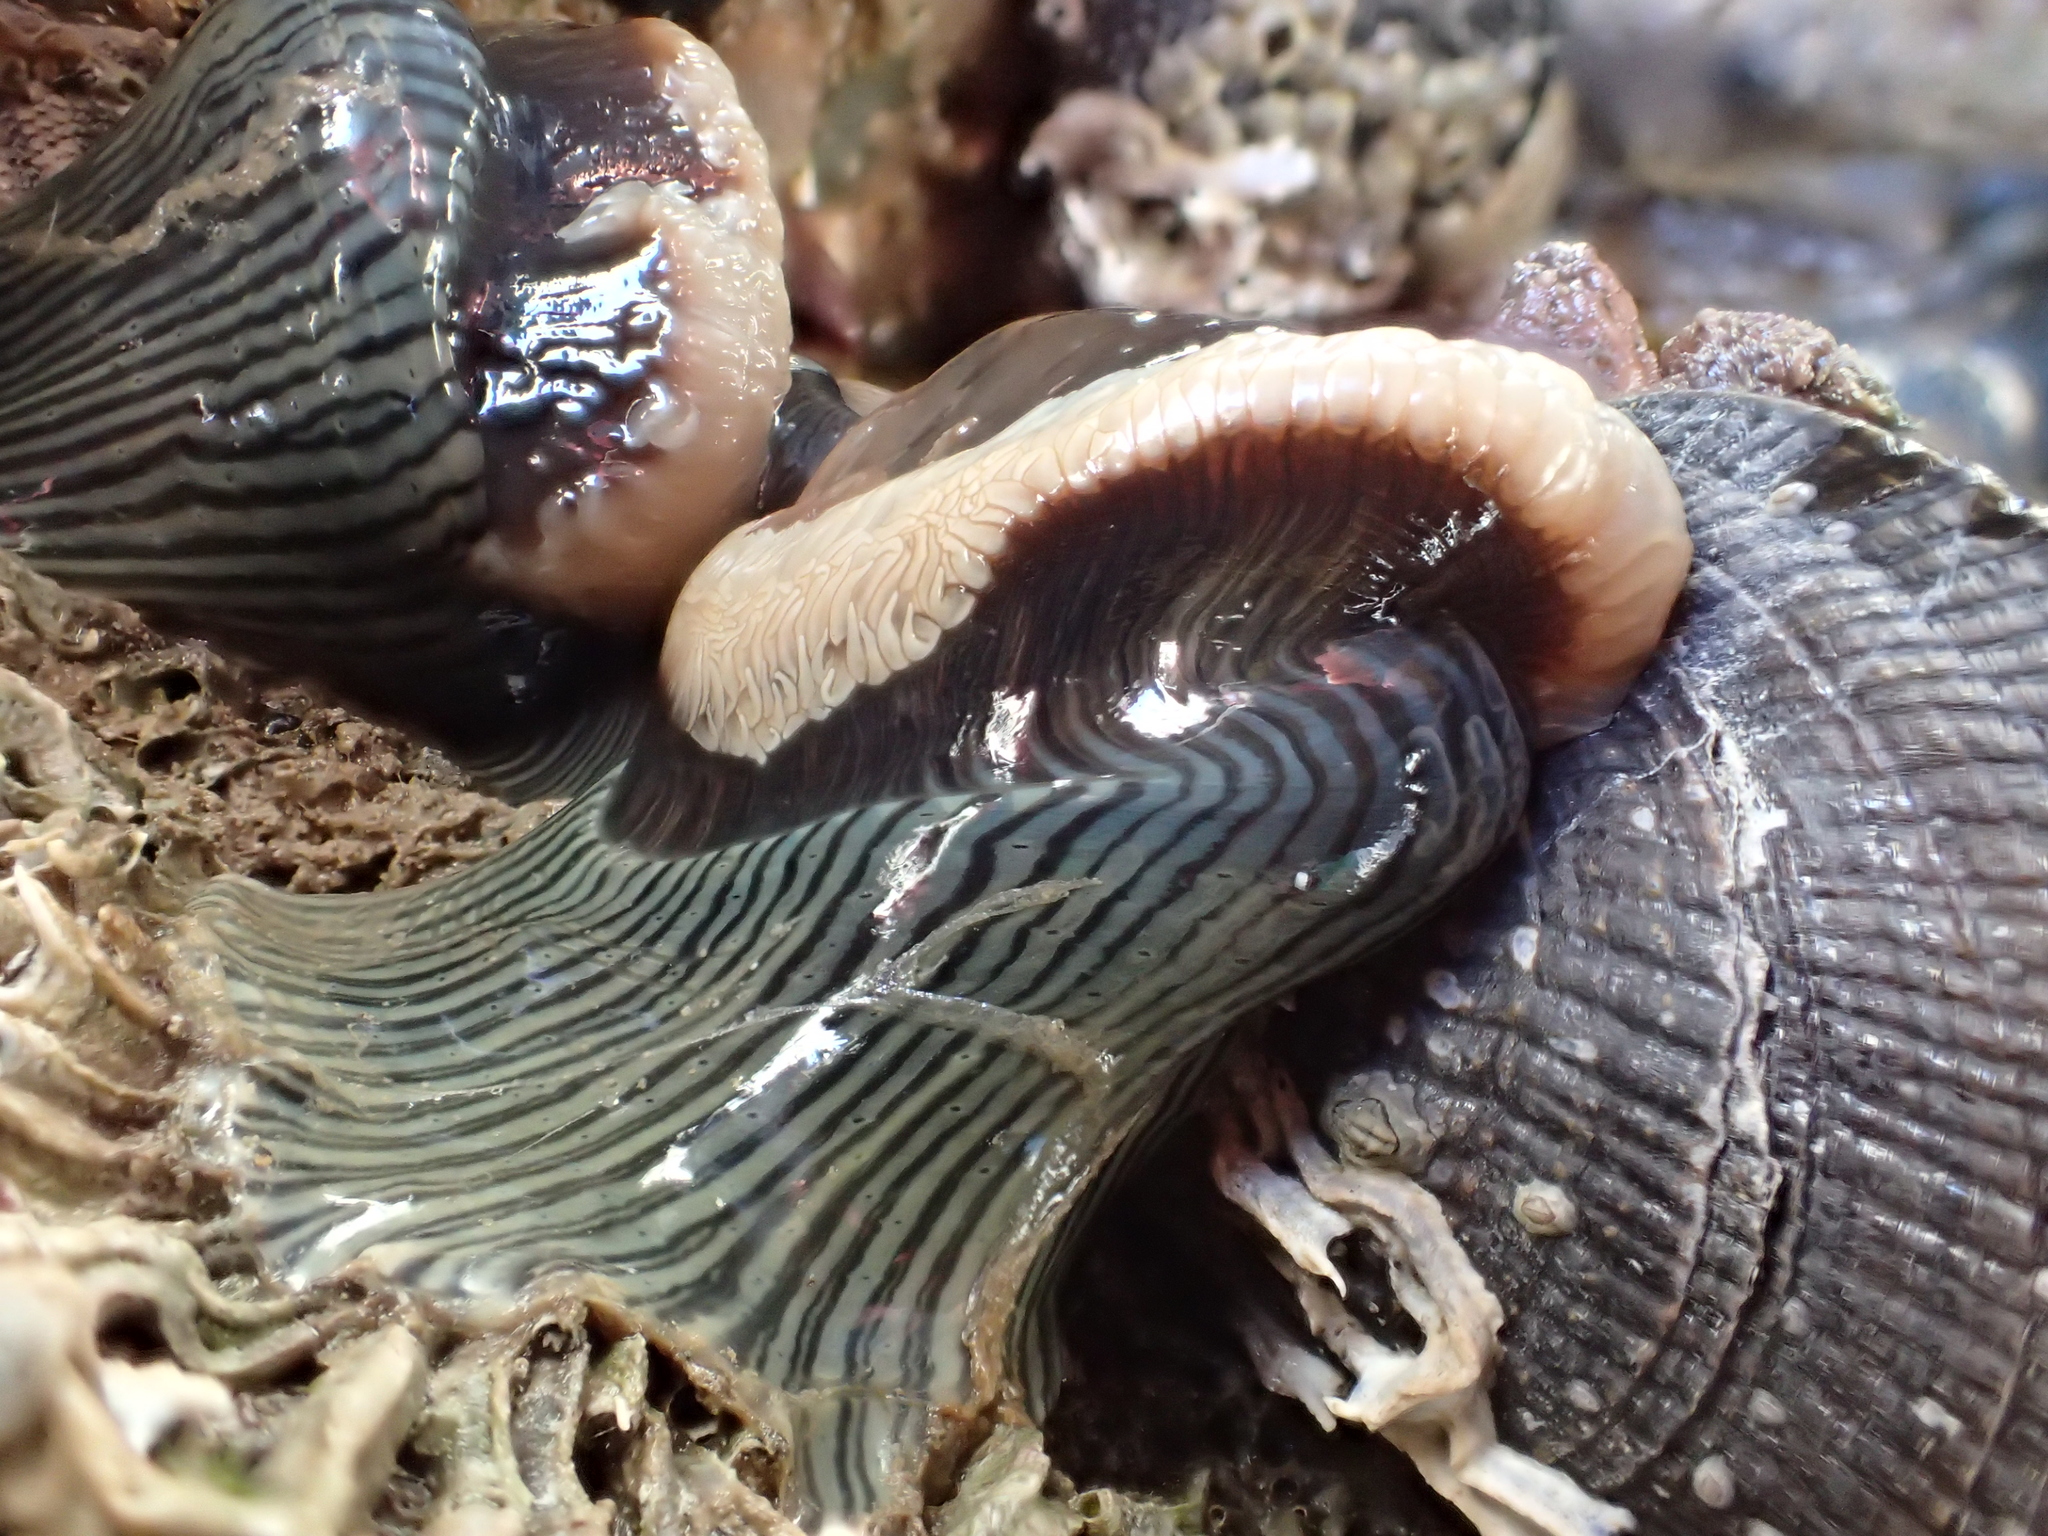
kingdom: Animalia
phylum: Cnidaria
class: Anthozoa
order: Actiniaria
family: Diadumenidae
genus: Diadumene
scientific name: Diadumene neozelanica
